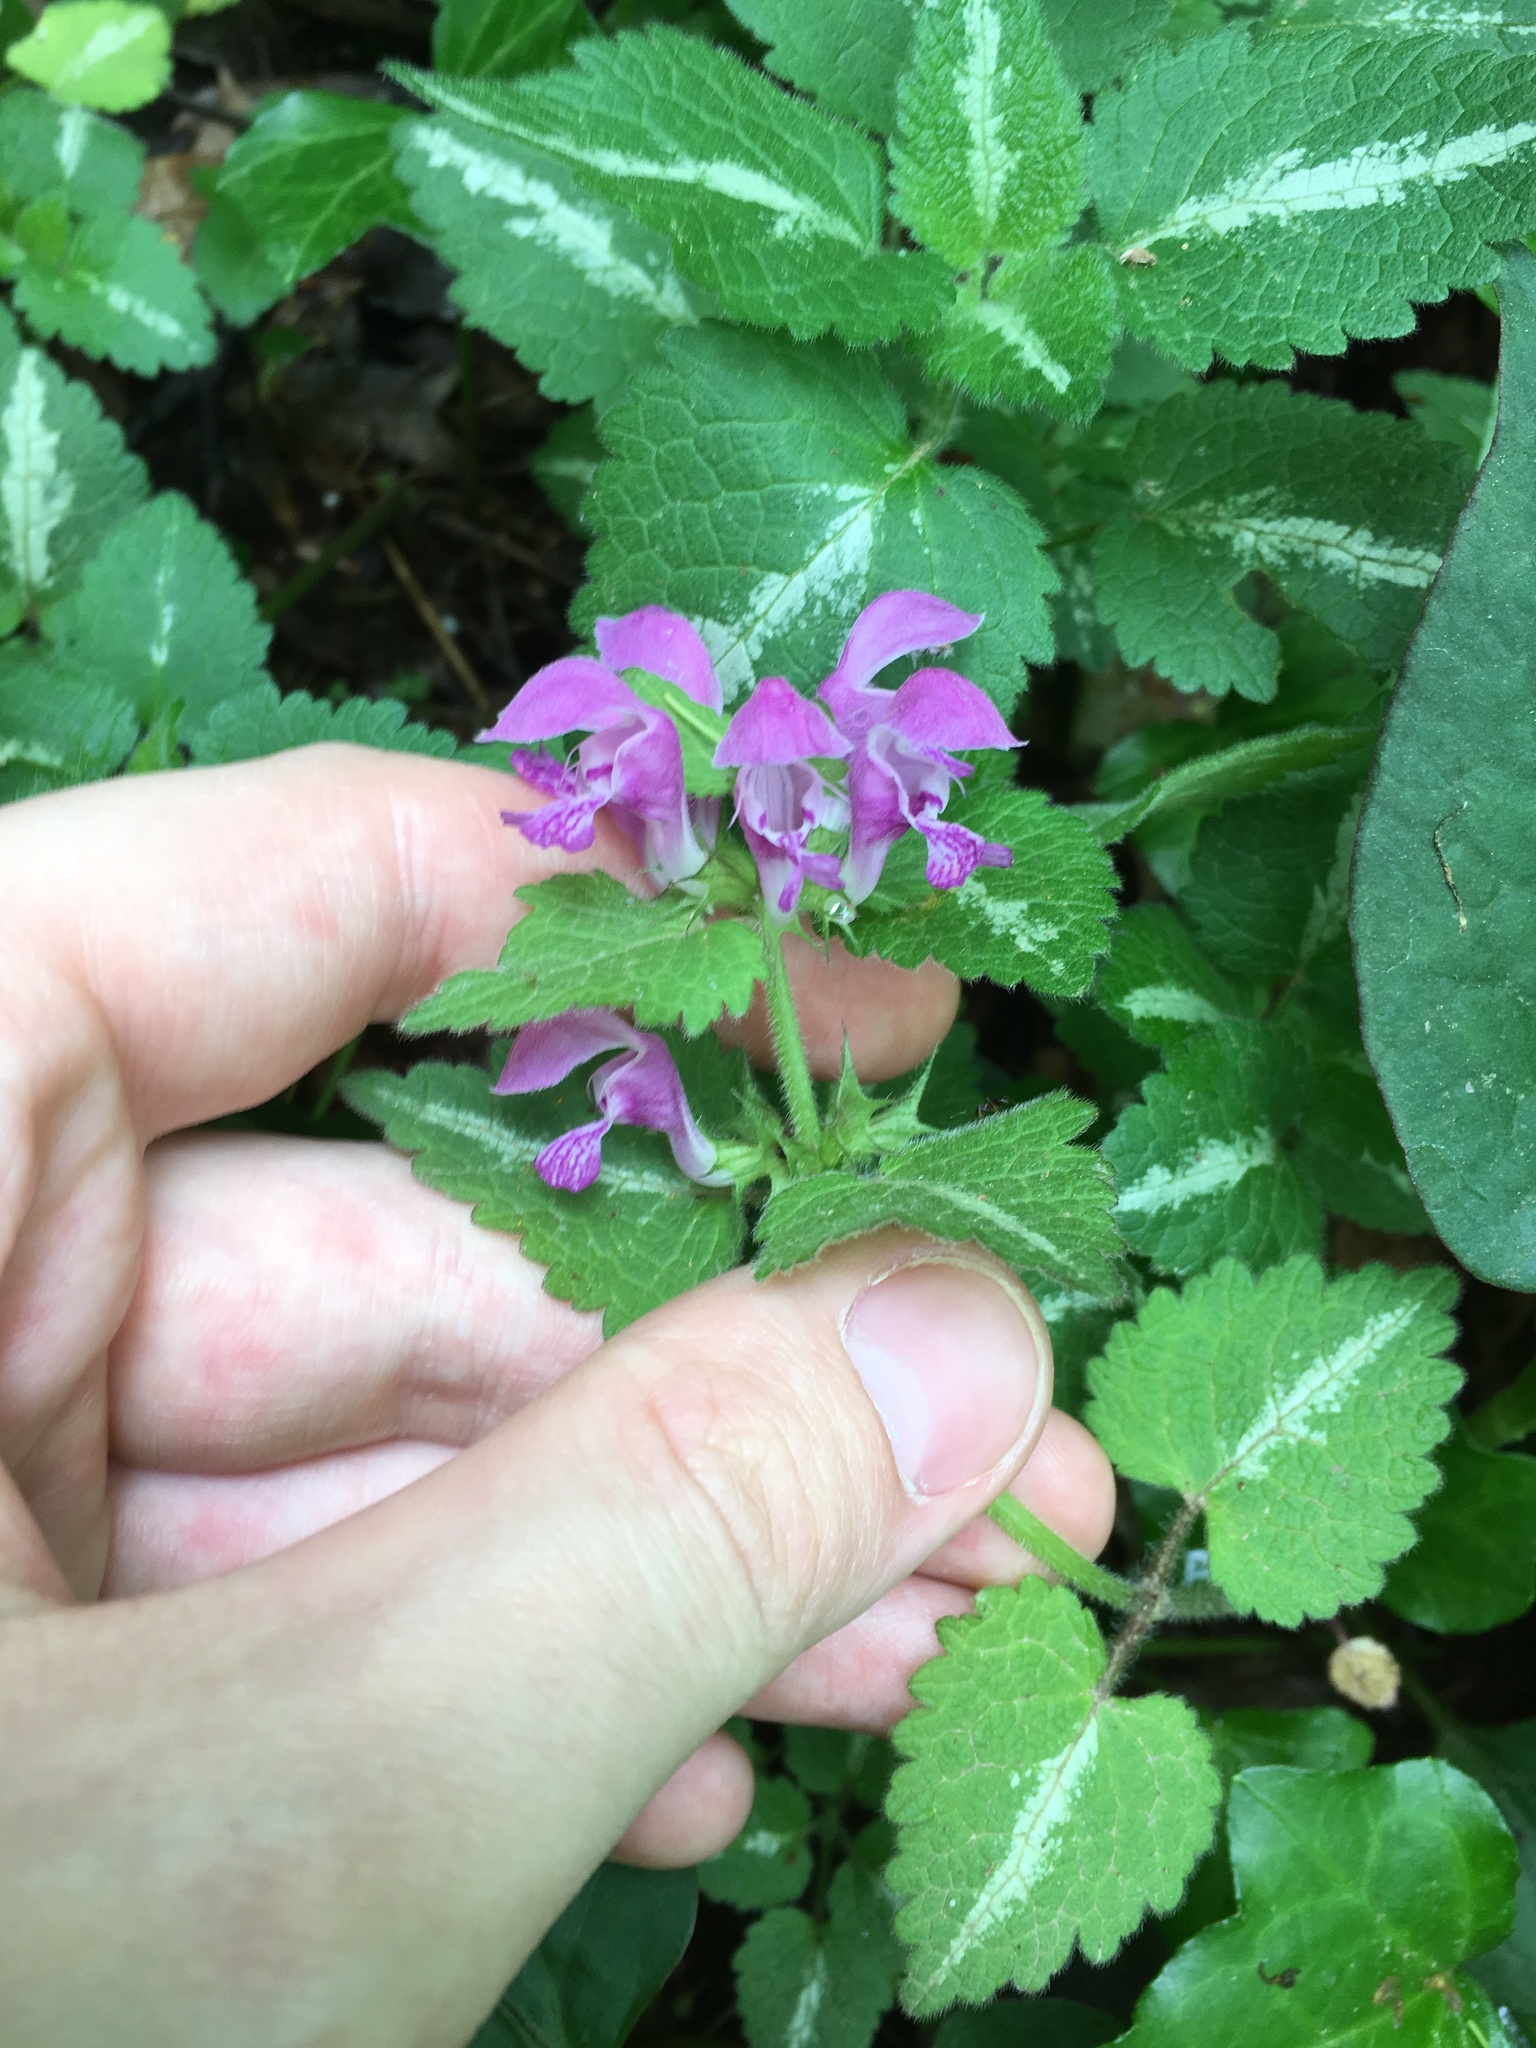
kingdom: Plantae
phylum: Tracheophyta
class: Magnoliopsida
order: Lamiales
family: Lamiaceae
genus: Lamium
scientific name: Lamium maculatum
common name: Spotted dead-nettle
